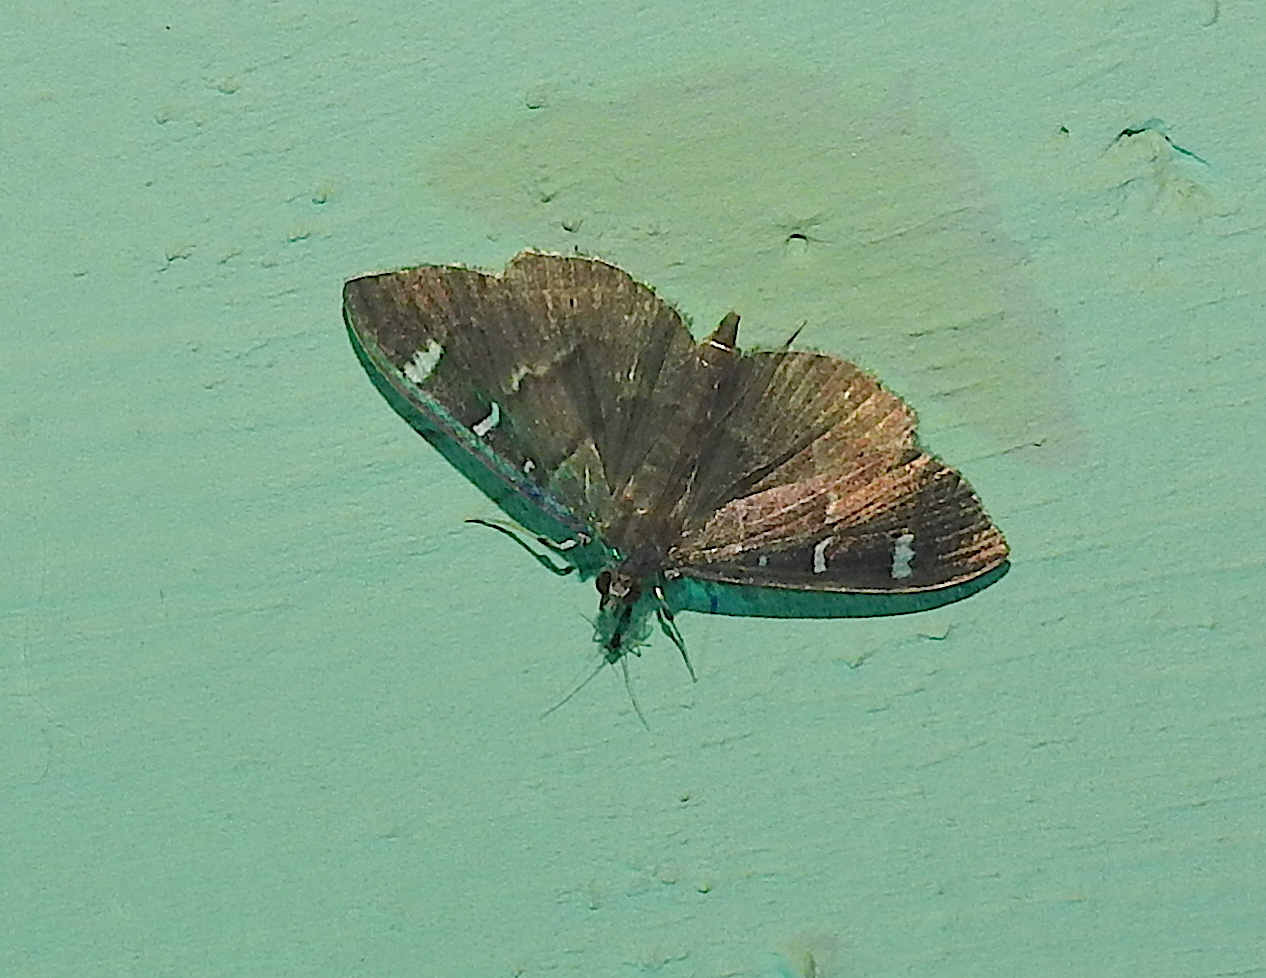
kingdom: Animalia
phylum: Arthropoda
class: Insecta
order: Lepidoptera
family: Crambidae
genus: Samea
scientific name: Samea castoralis
